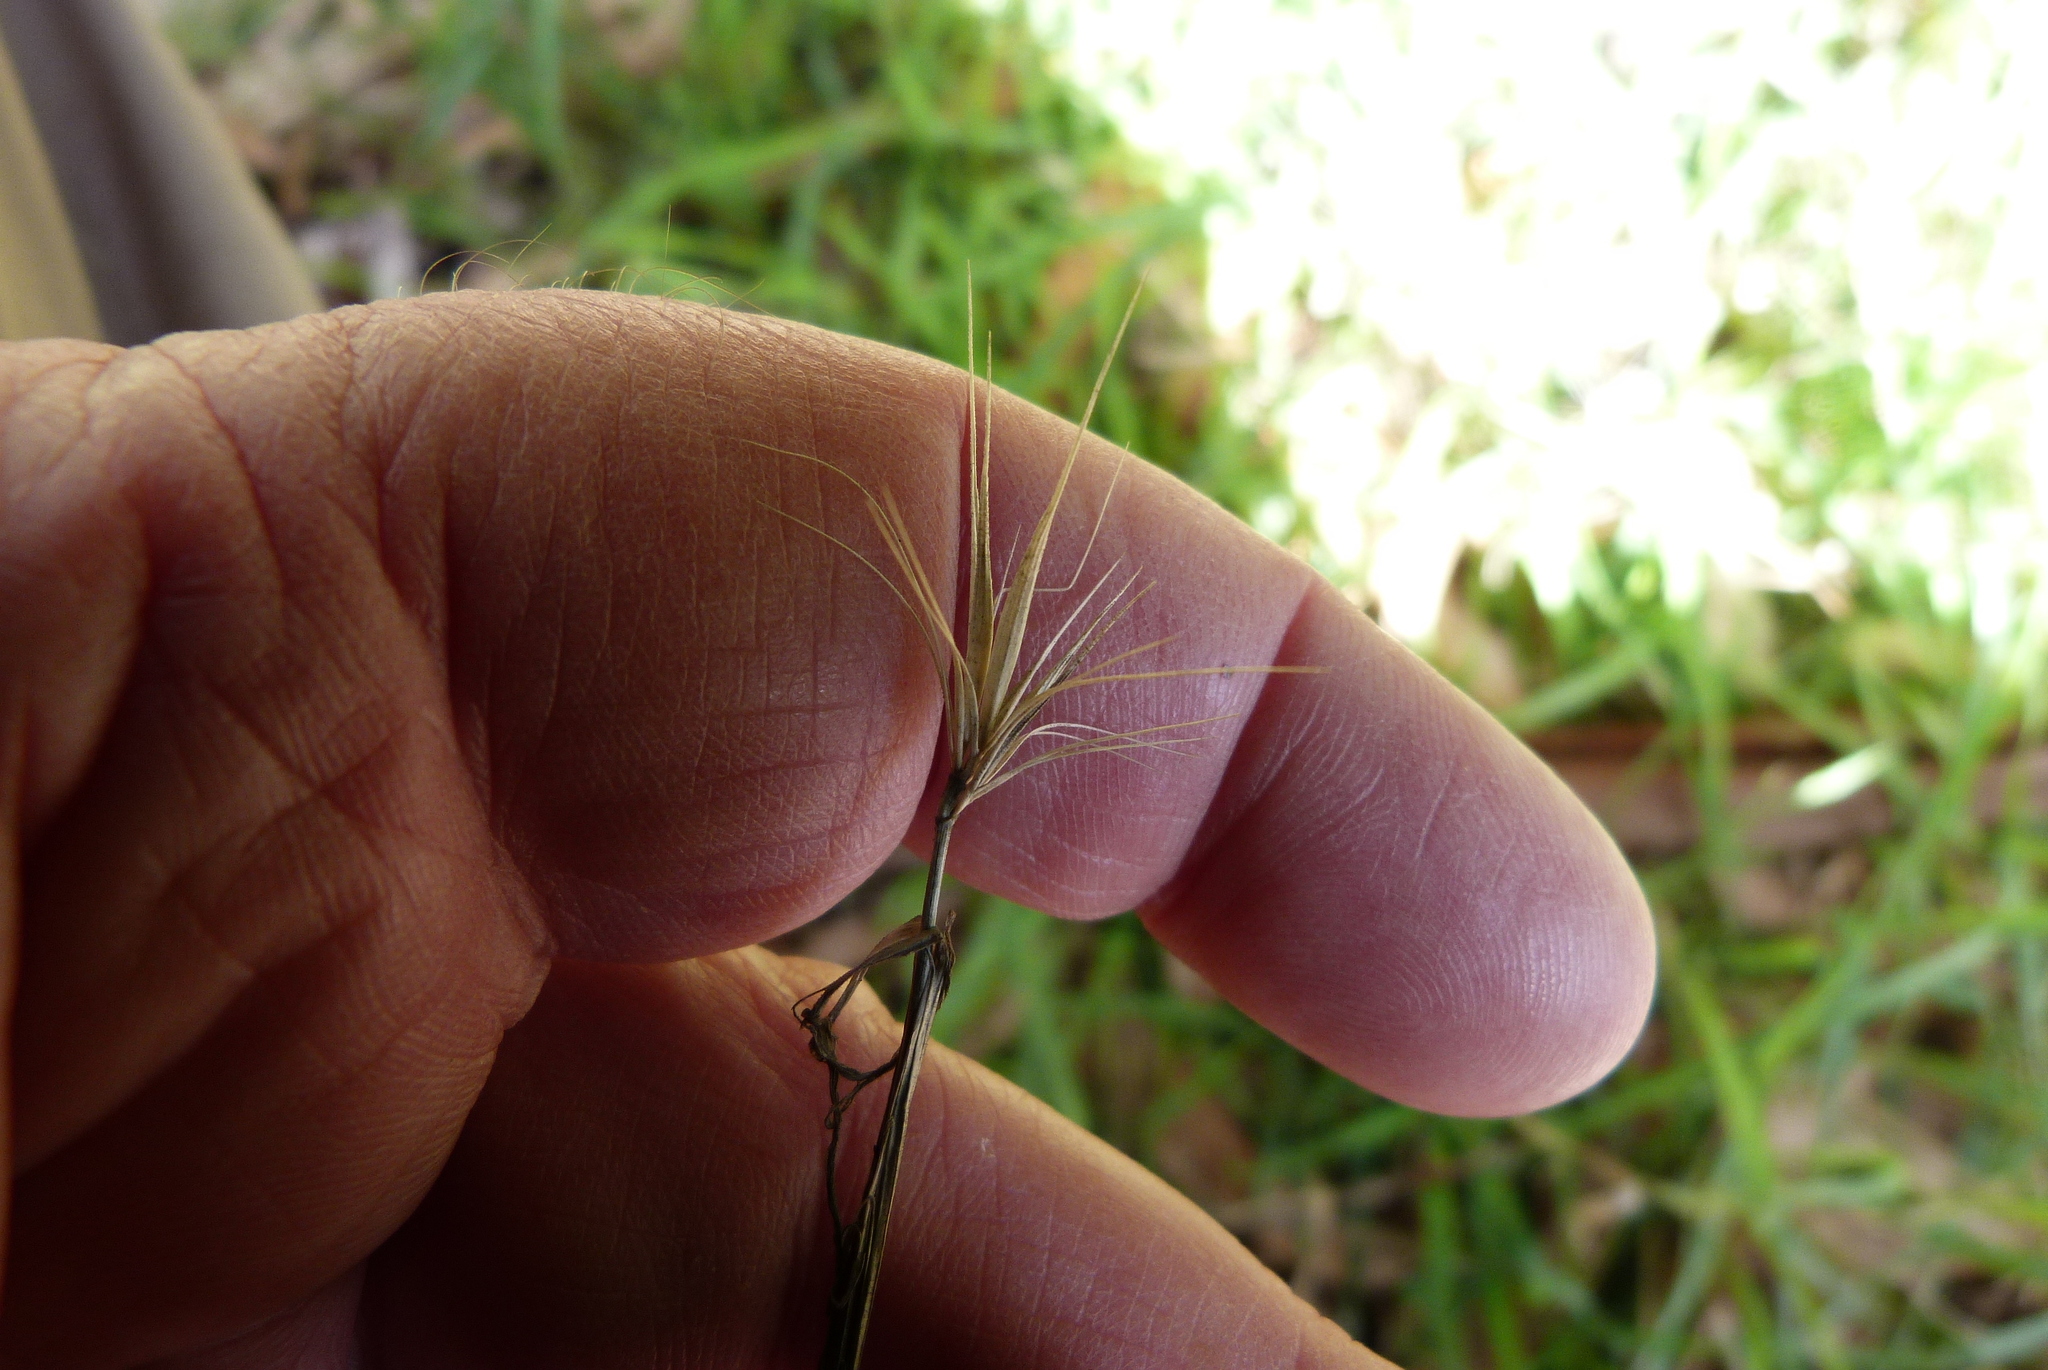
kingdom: Plantae
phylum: Tracheophyta
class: Liliopsida
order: Poales
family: Poaceae
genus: Hordeum
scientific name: Hordeum murinum
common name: Wall barley
